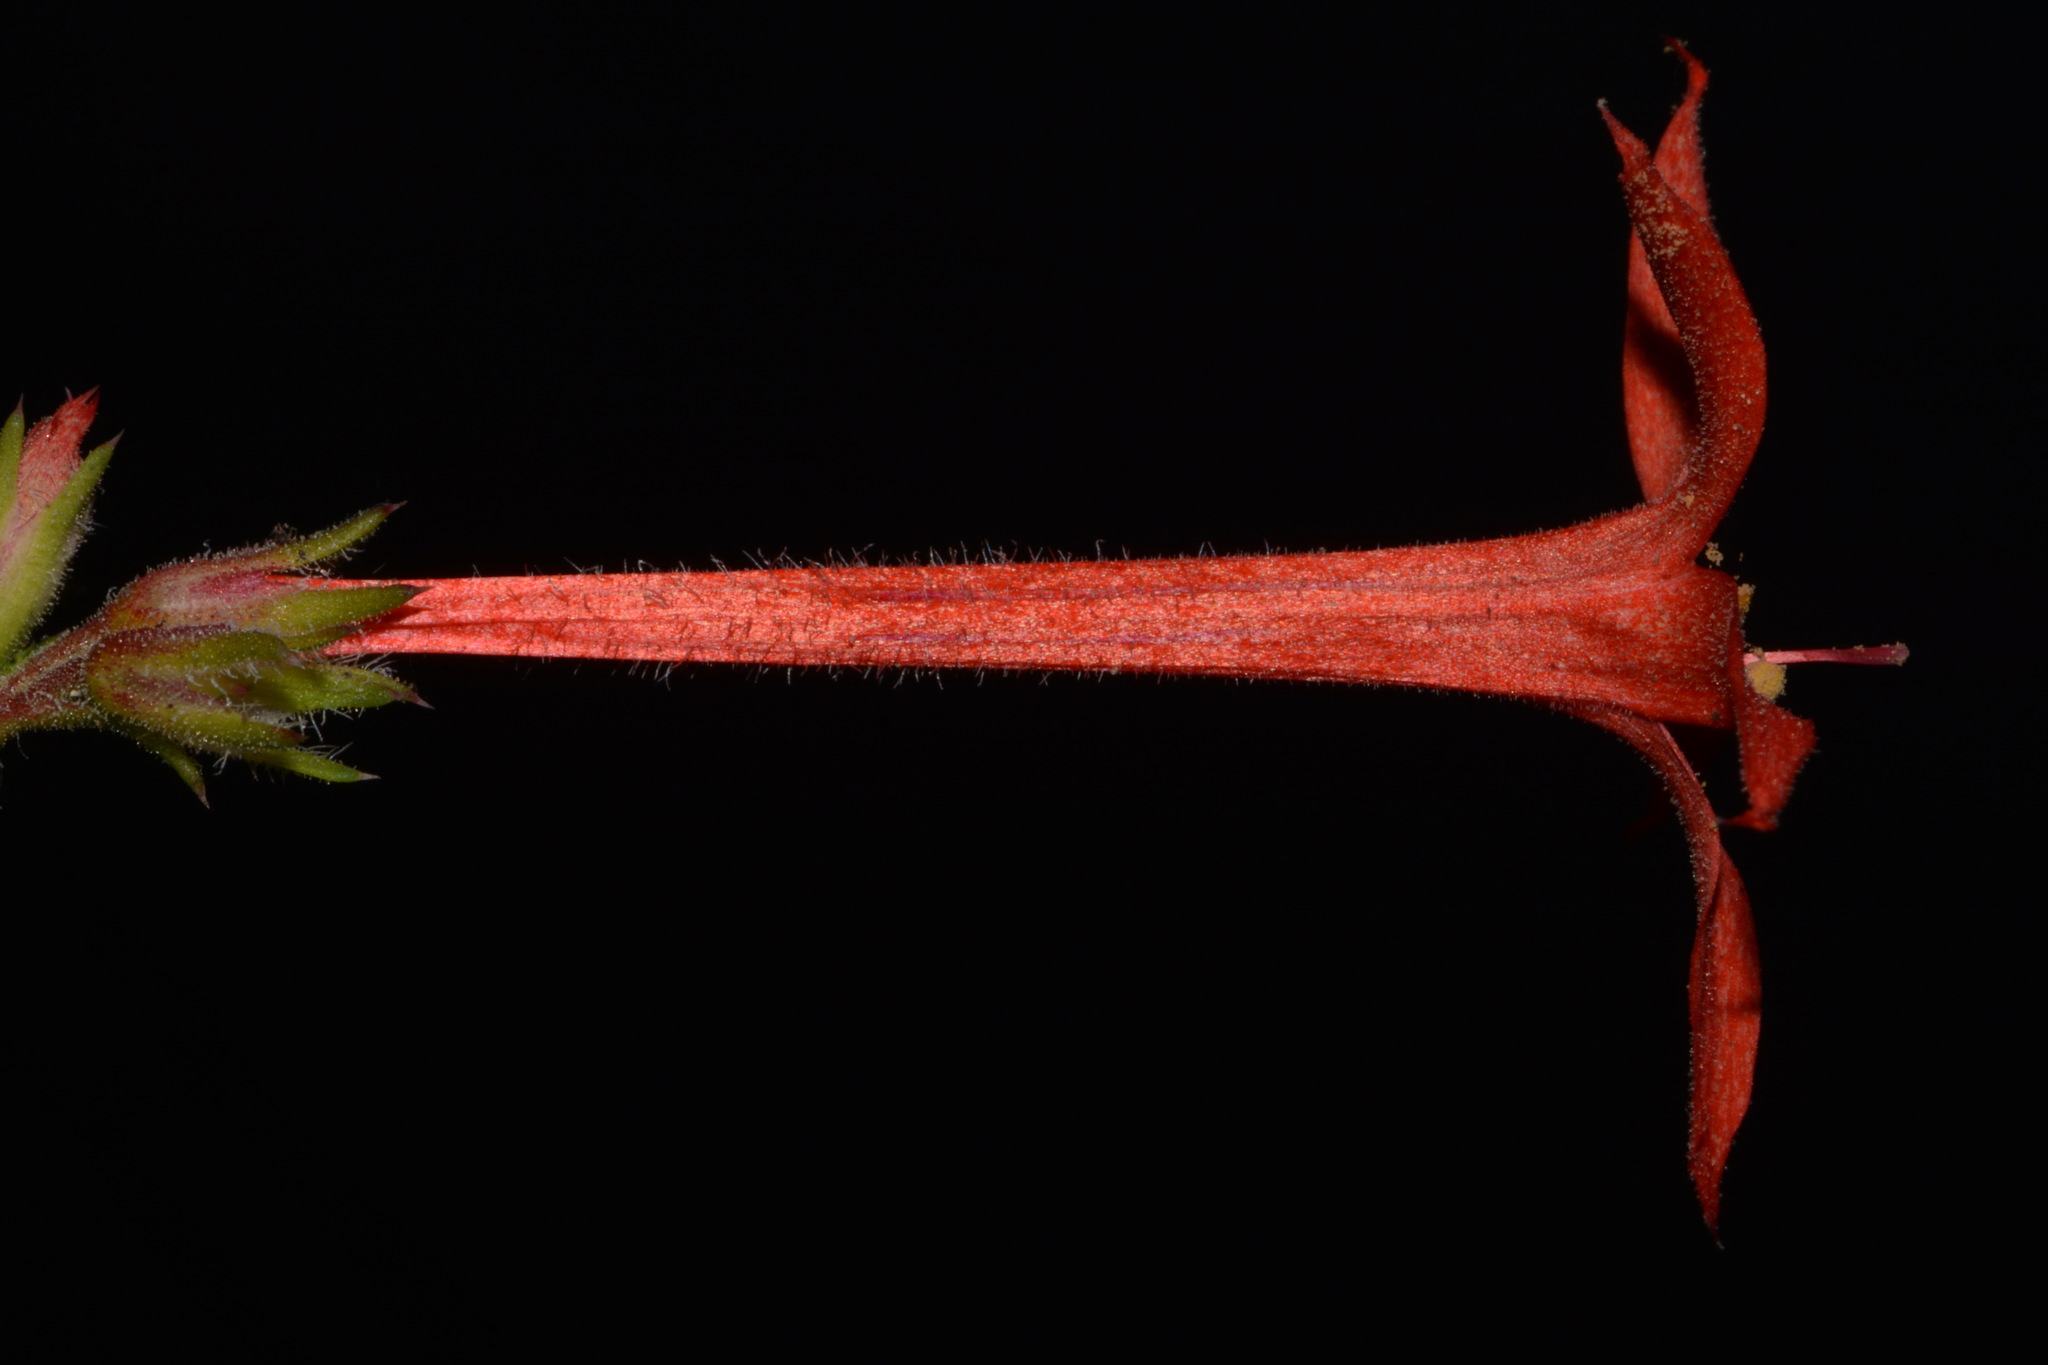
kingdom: Plantae
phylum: Tracheophyta
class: Magnoliopsida
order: Ericales
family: Polemoniaceae
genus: Ipomopsis
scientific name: Ipomopsis aggregata
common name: Scarlet gilia
